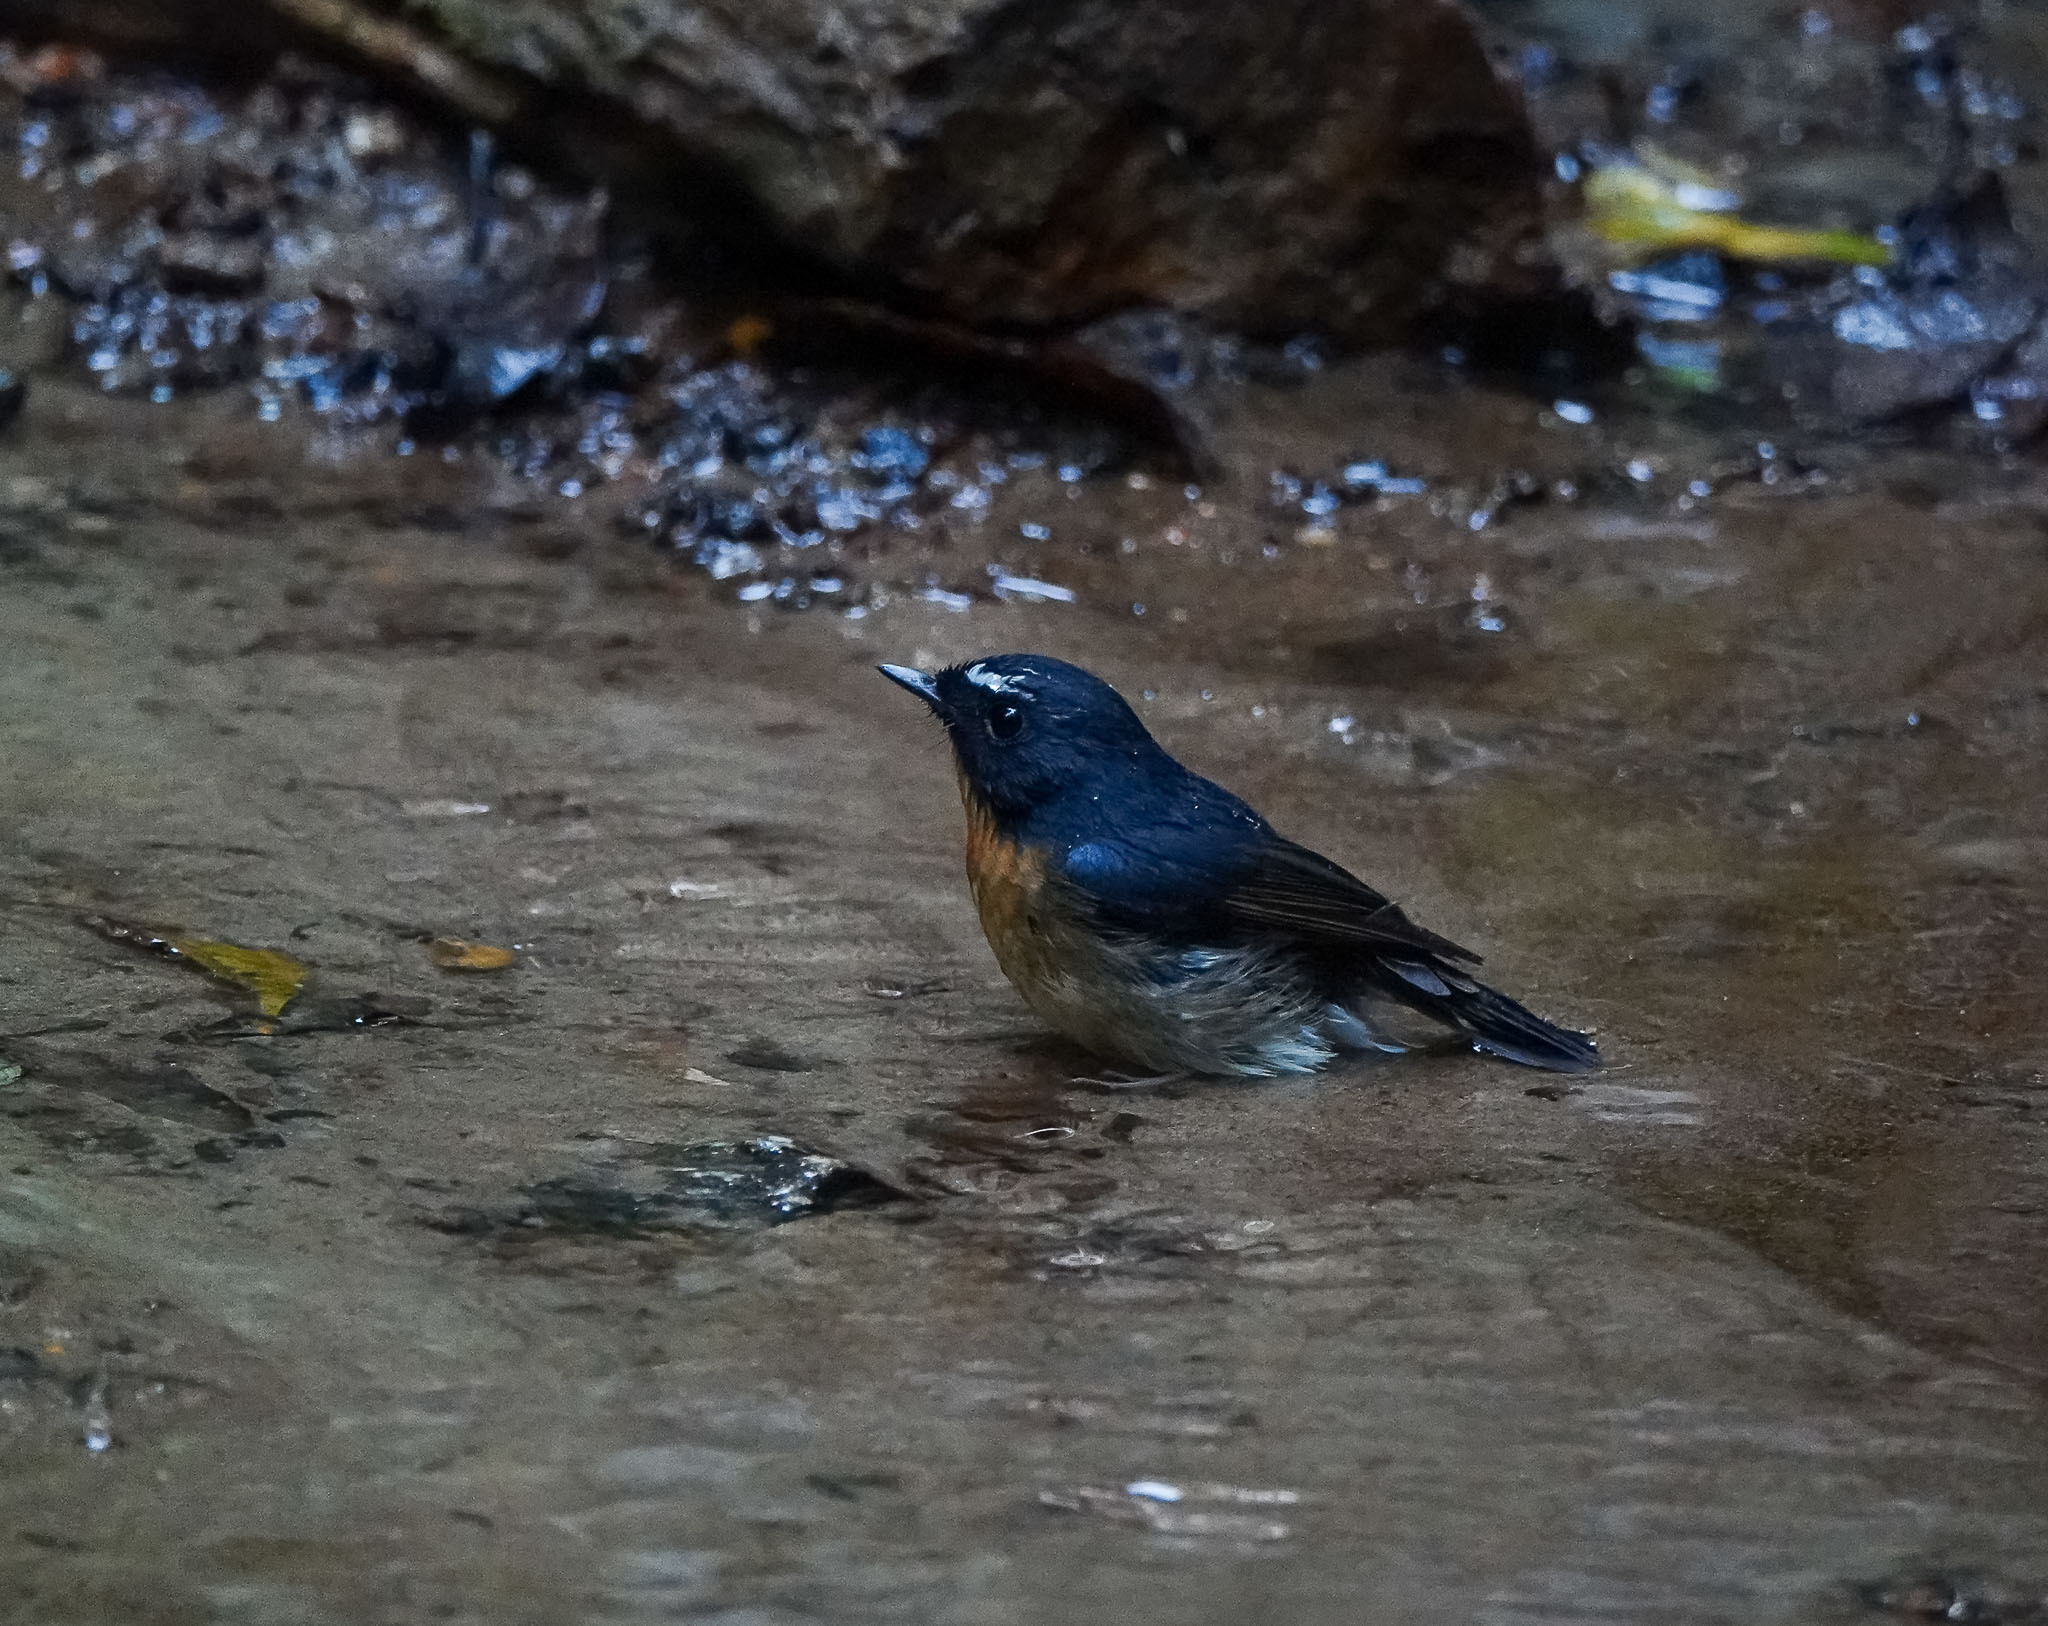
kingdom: Animalia
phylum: Chordata
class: Aves
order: Passeriformes
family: Muscicapidae
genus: Ficedula
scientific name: Ficedula hyperythra
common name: Snowy-browed flycatcher
